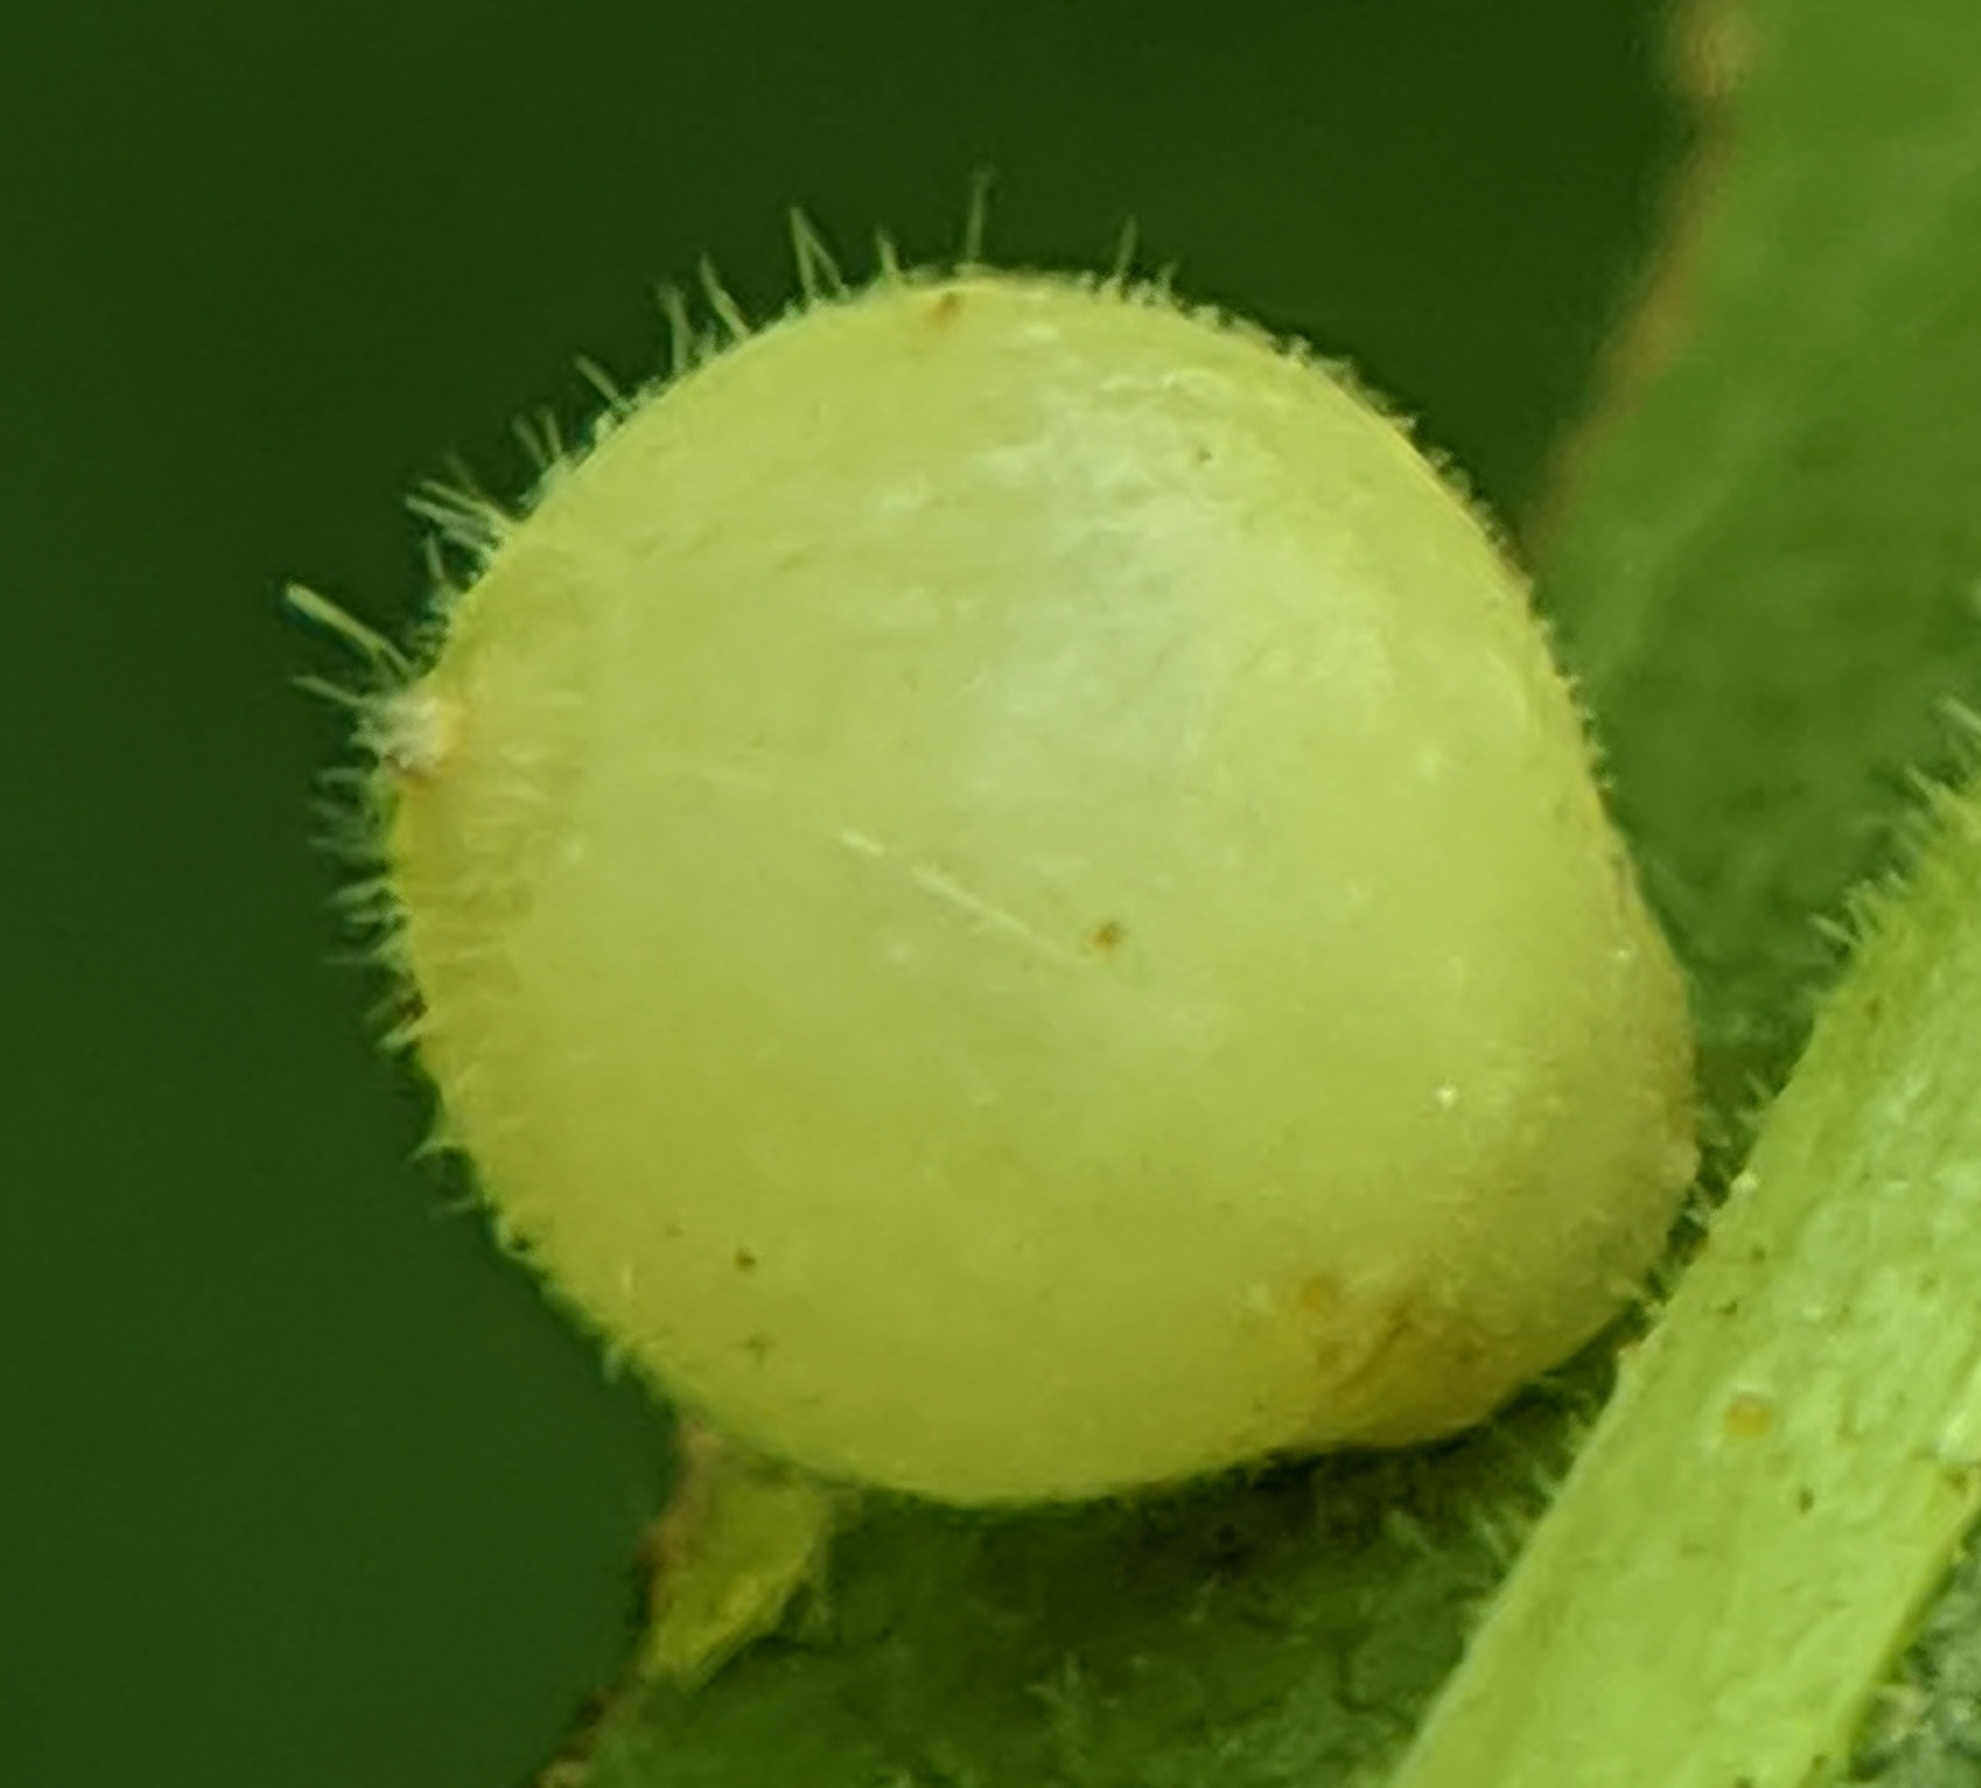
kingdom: Animalia
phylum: Arthropoda
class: Insecta
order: Diptera
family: Cecidomyiidae
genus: Caryomyia
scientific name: Caryomyia cilidolium
